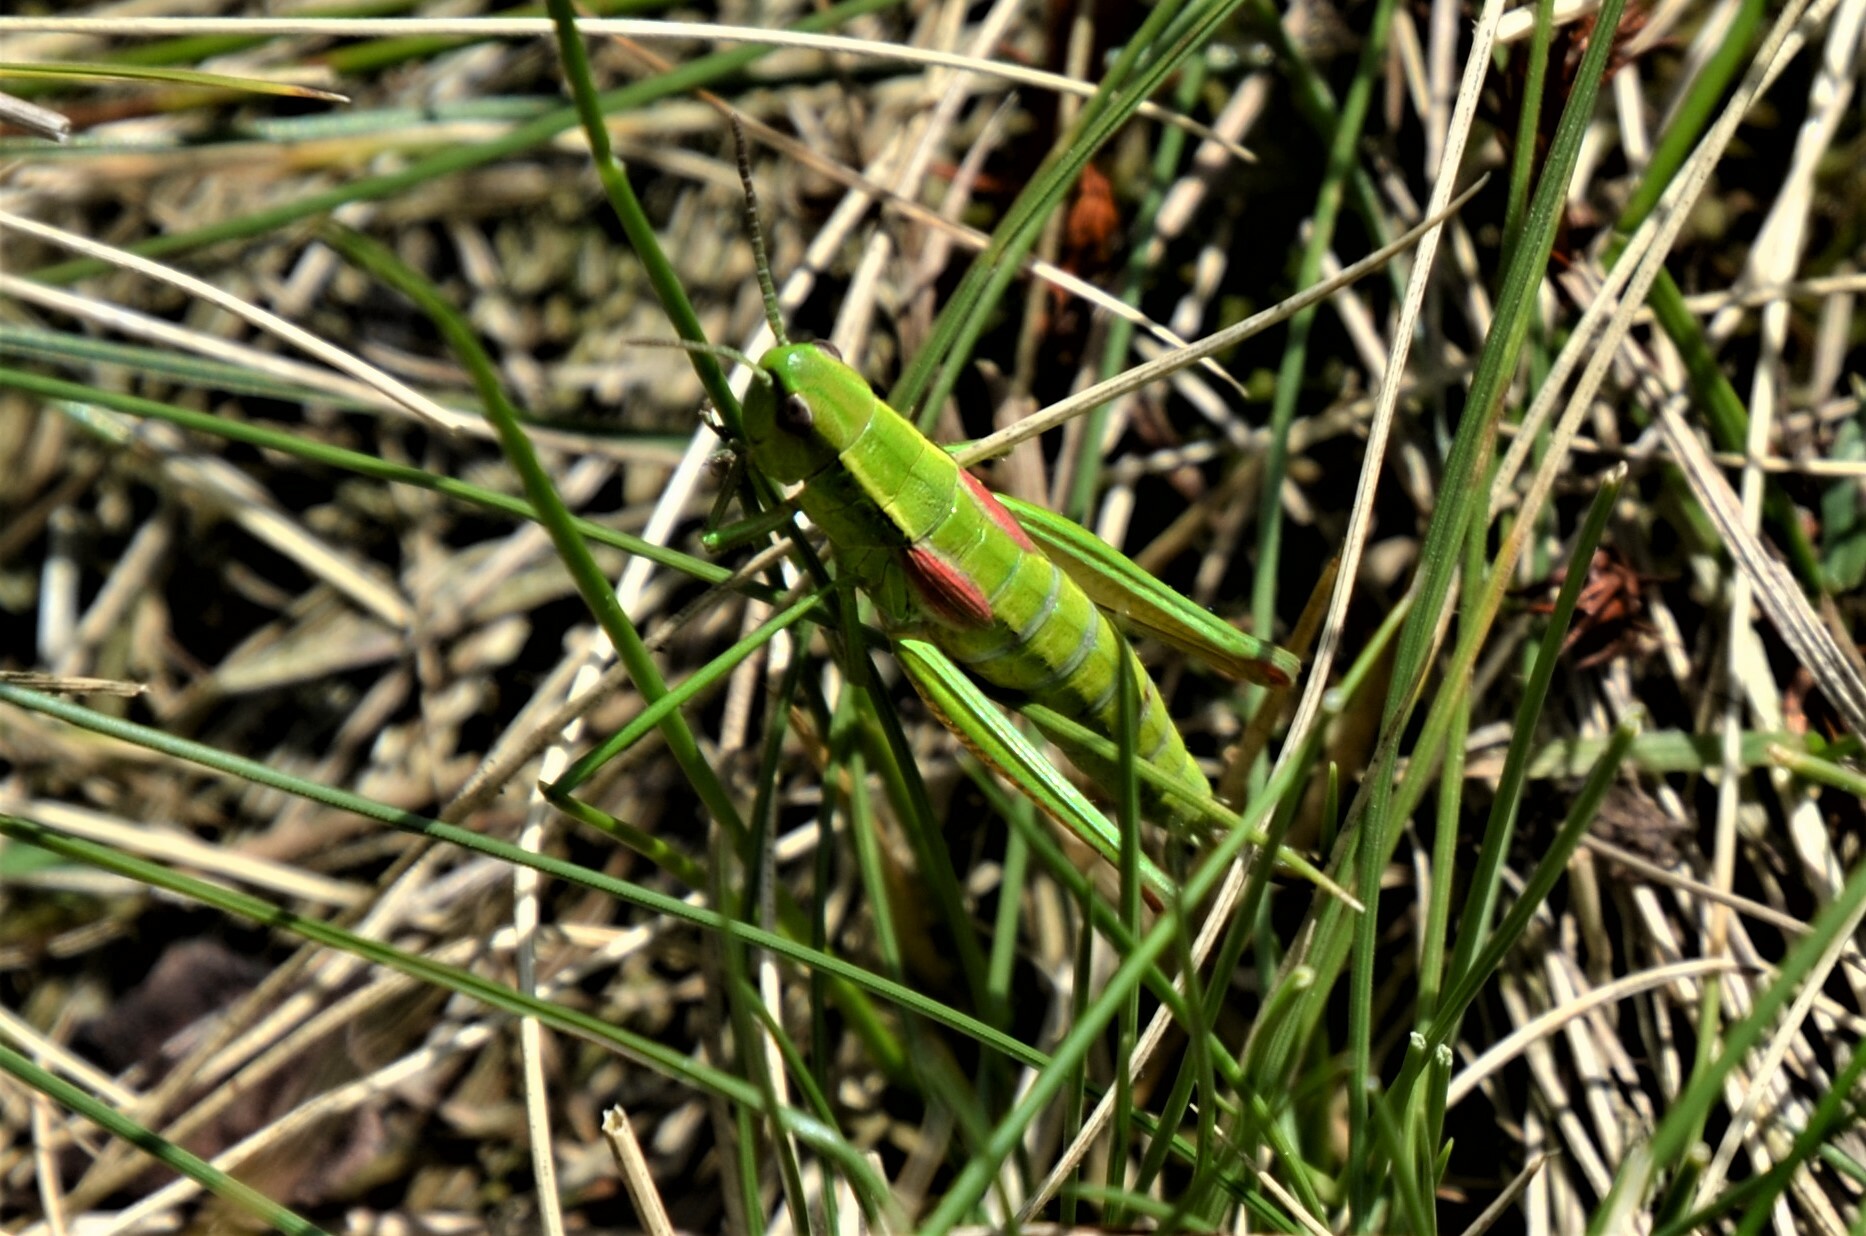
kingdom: Animalia
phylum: Arthropoda
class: Insecta
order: Orthoptera
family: Acrididae
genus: Euthystira
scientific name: Euthystira brachyptera
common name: Small gold grasshopper
